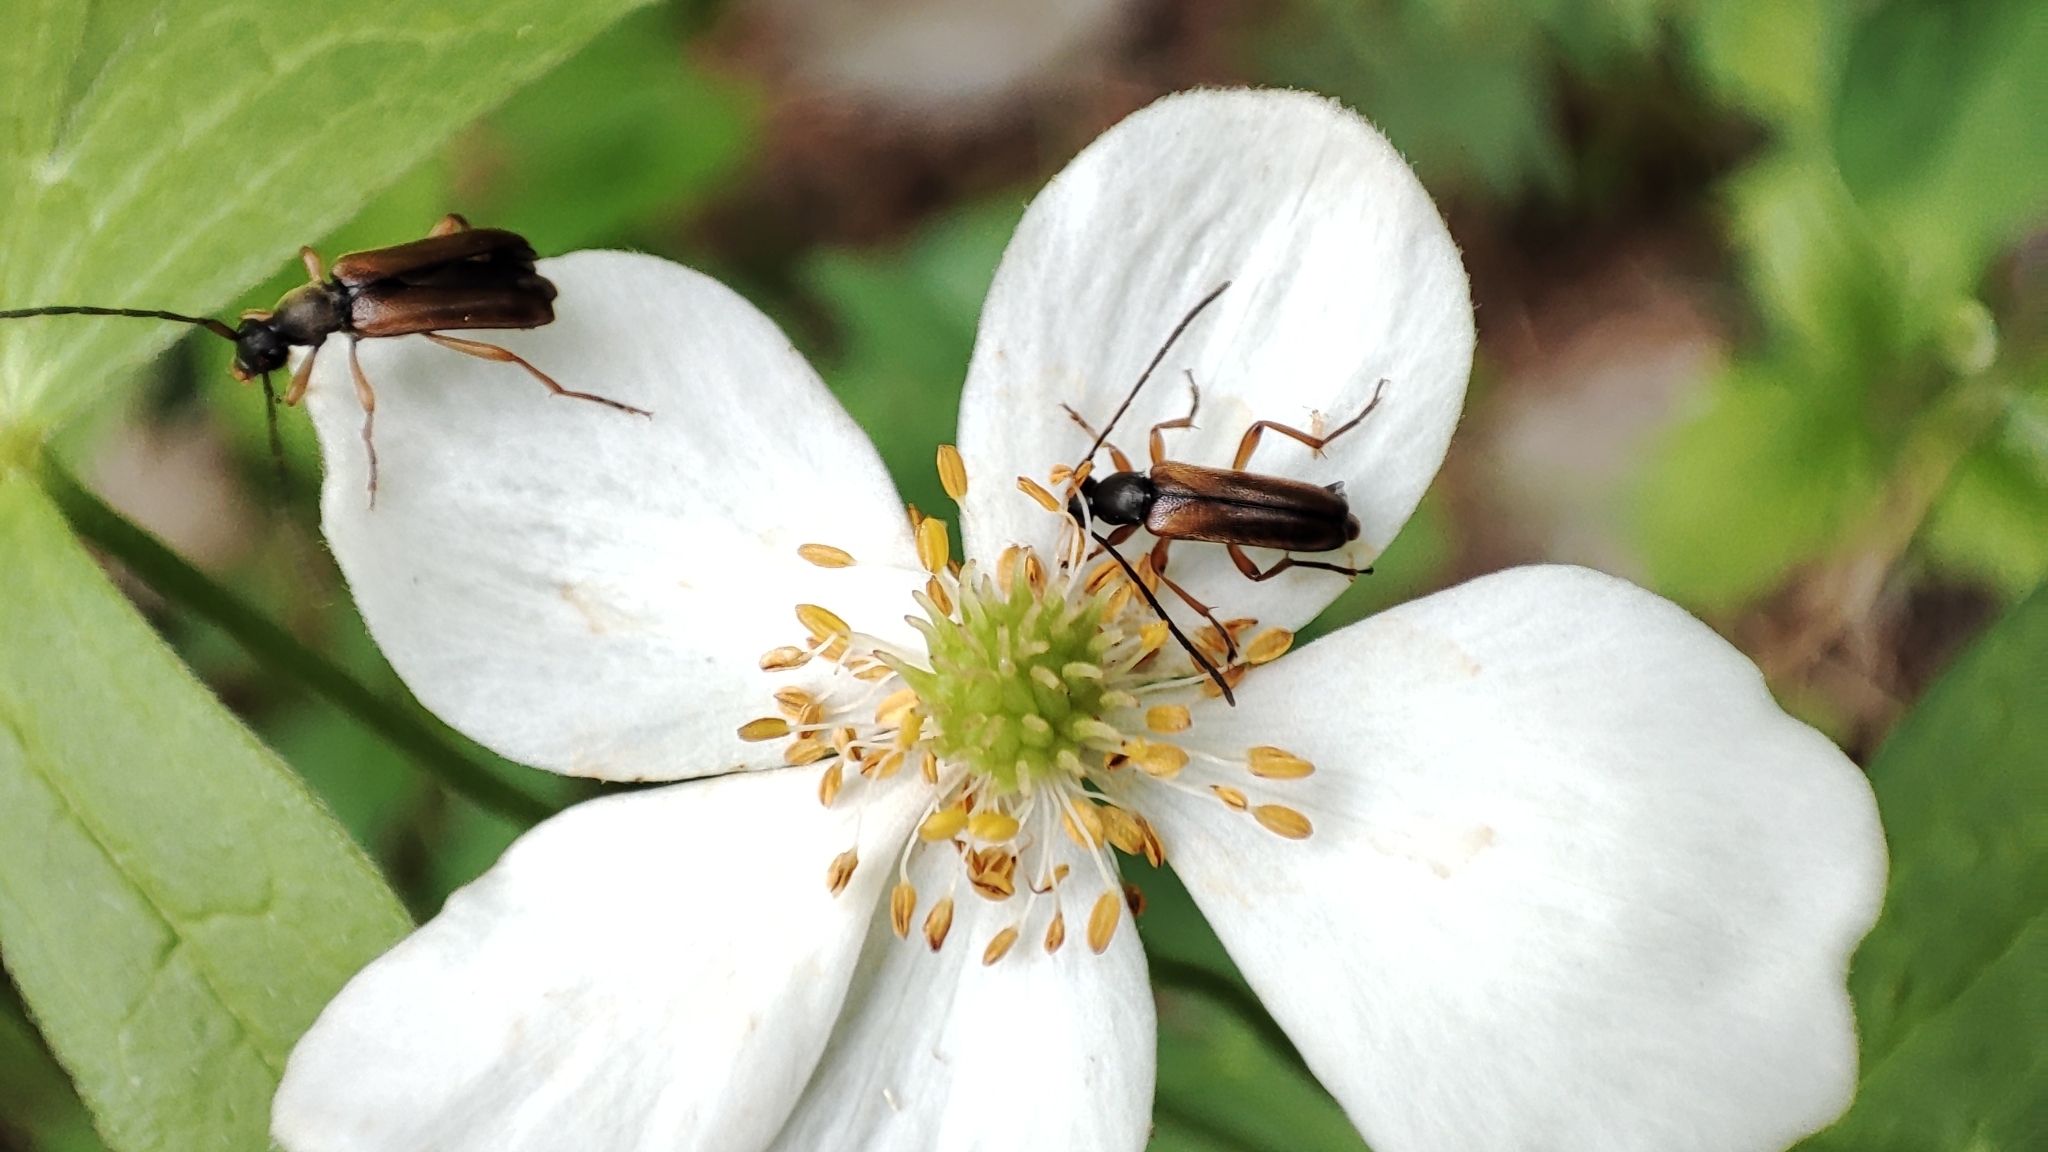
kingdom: Animalia
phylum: Arthropoda
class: Insecta
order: Coleoptera
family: Cerambycidae
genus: Alosterna
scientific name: Alosterna tabacicolor
